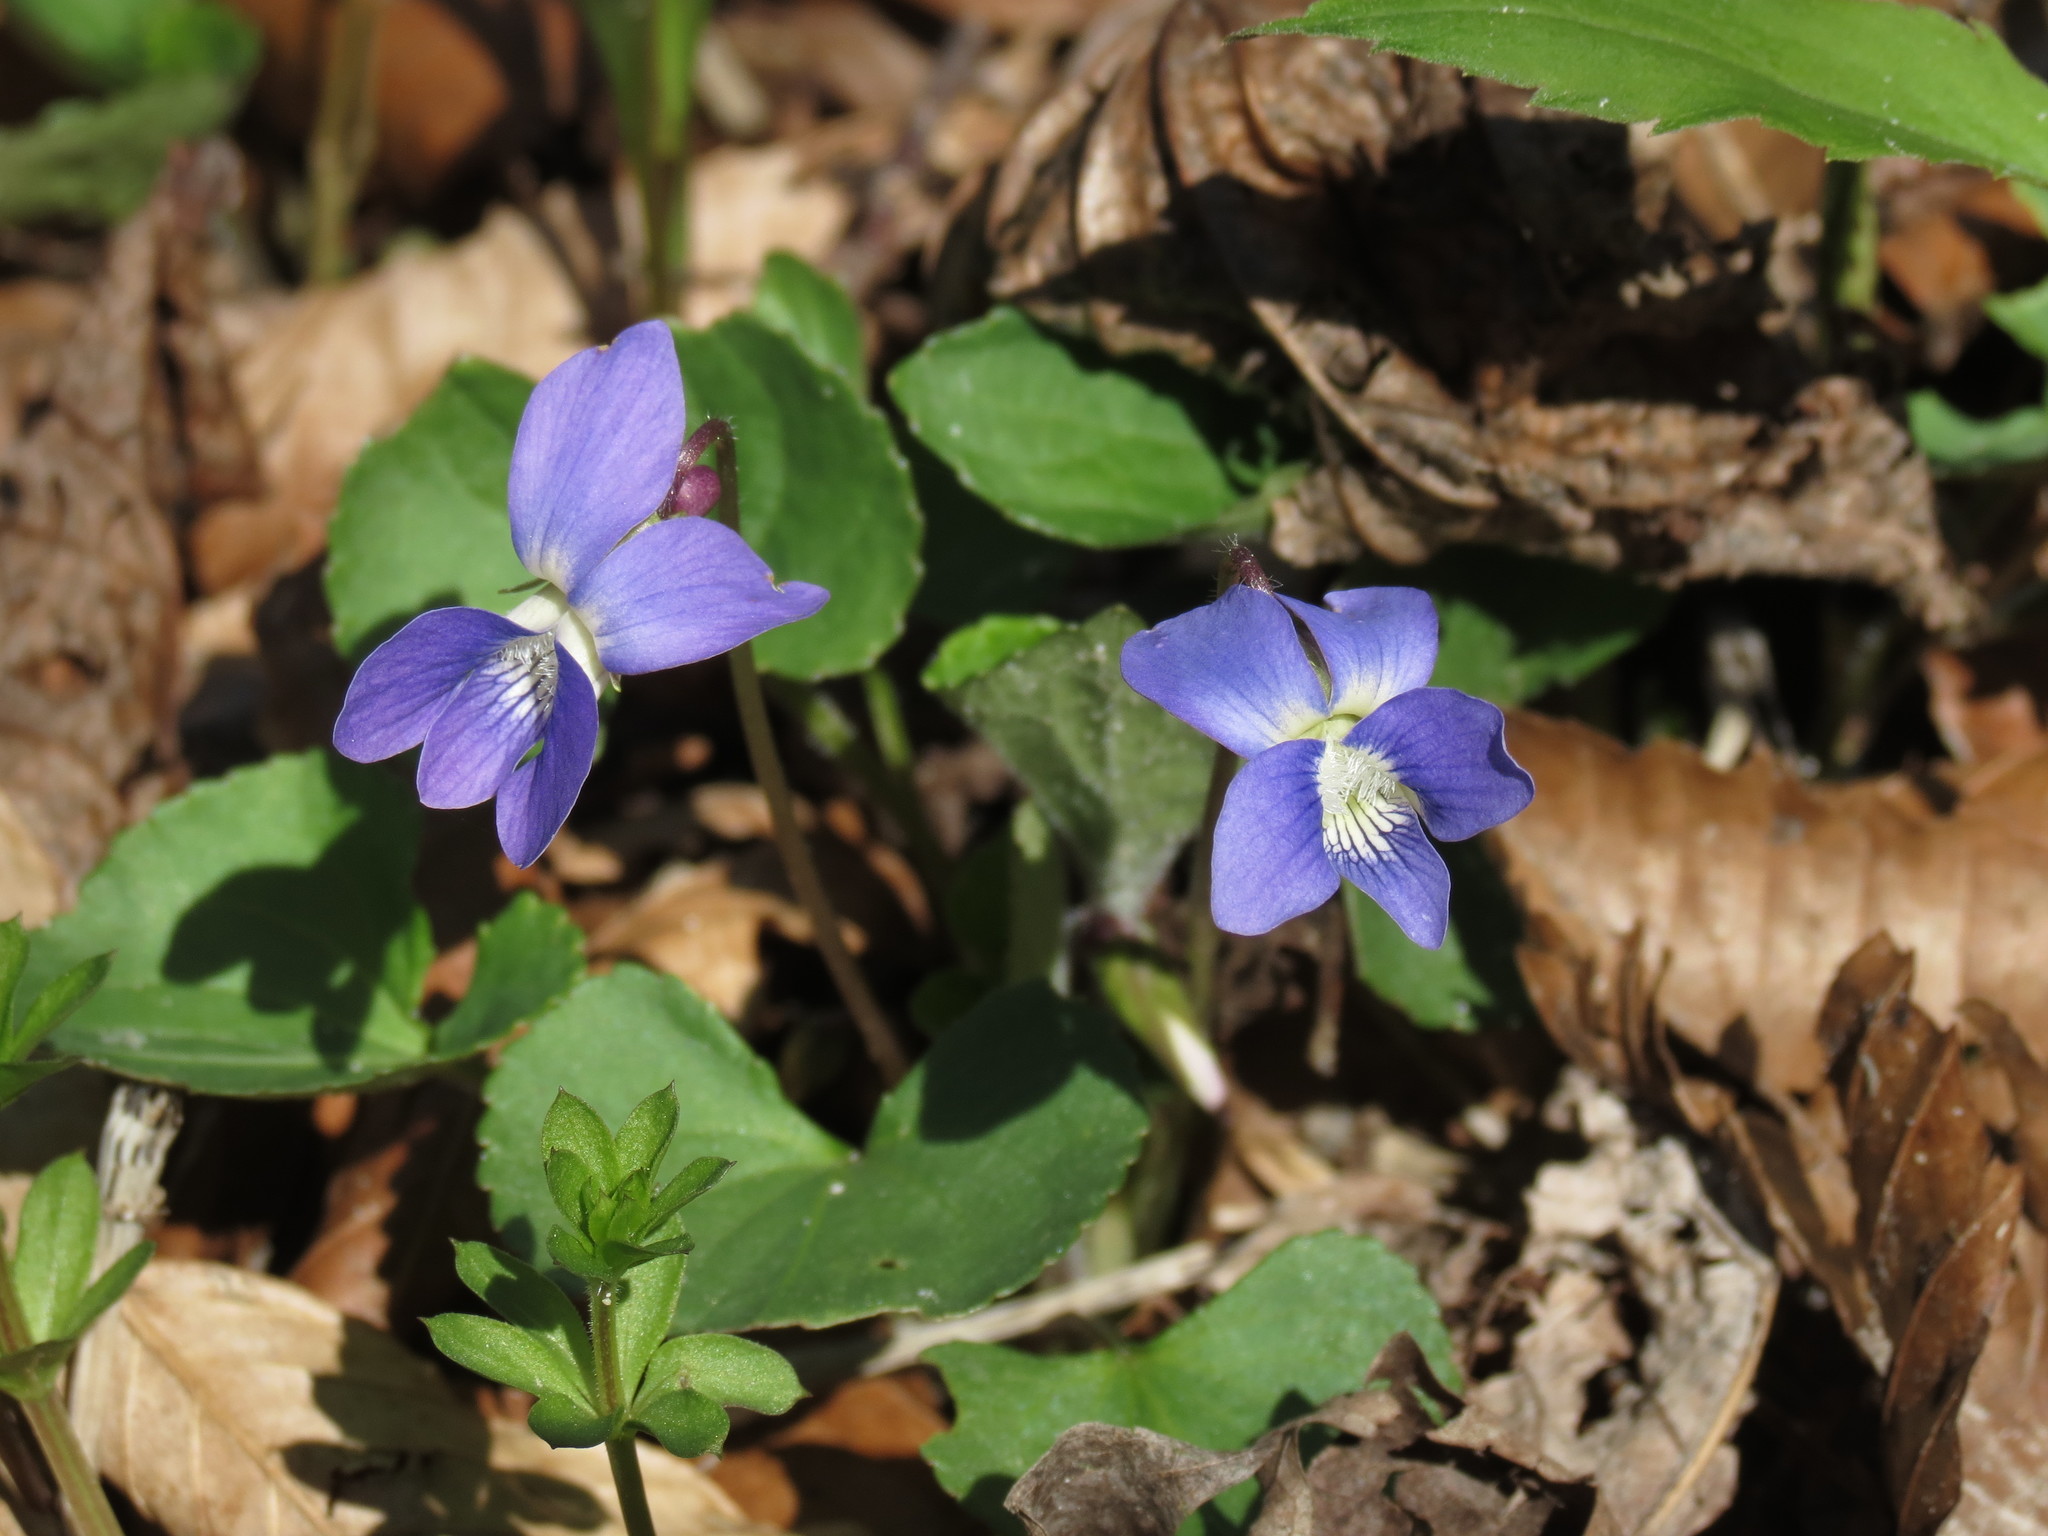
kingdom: Plantae
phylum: Tracheophyta
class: Magnoliopsida
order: Malpighiales
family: Violaceae
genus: Viola
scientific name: Viola sororia
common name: Dooryard violet
